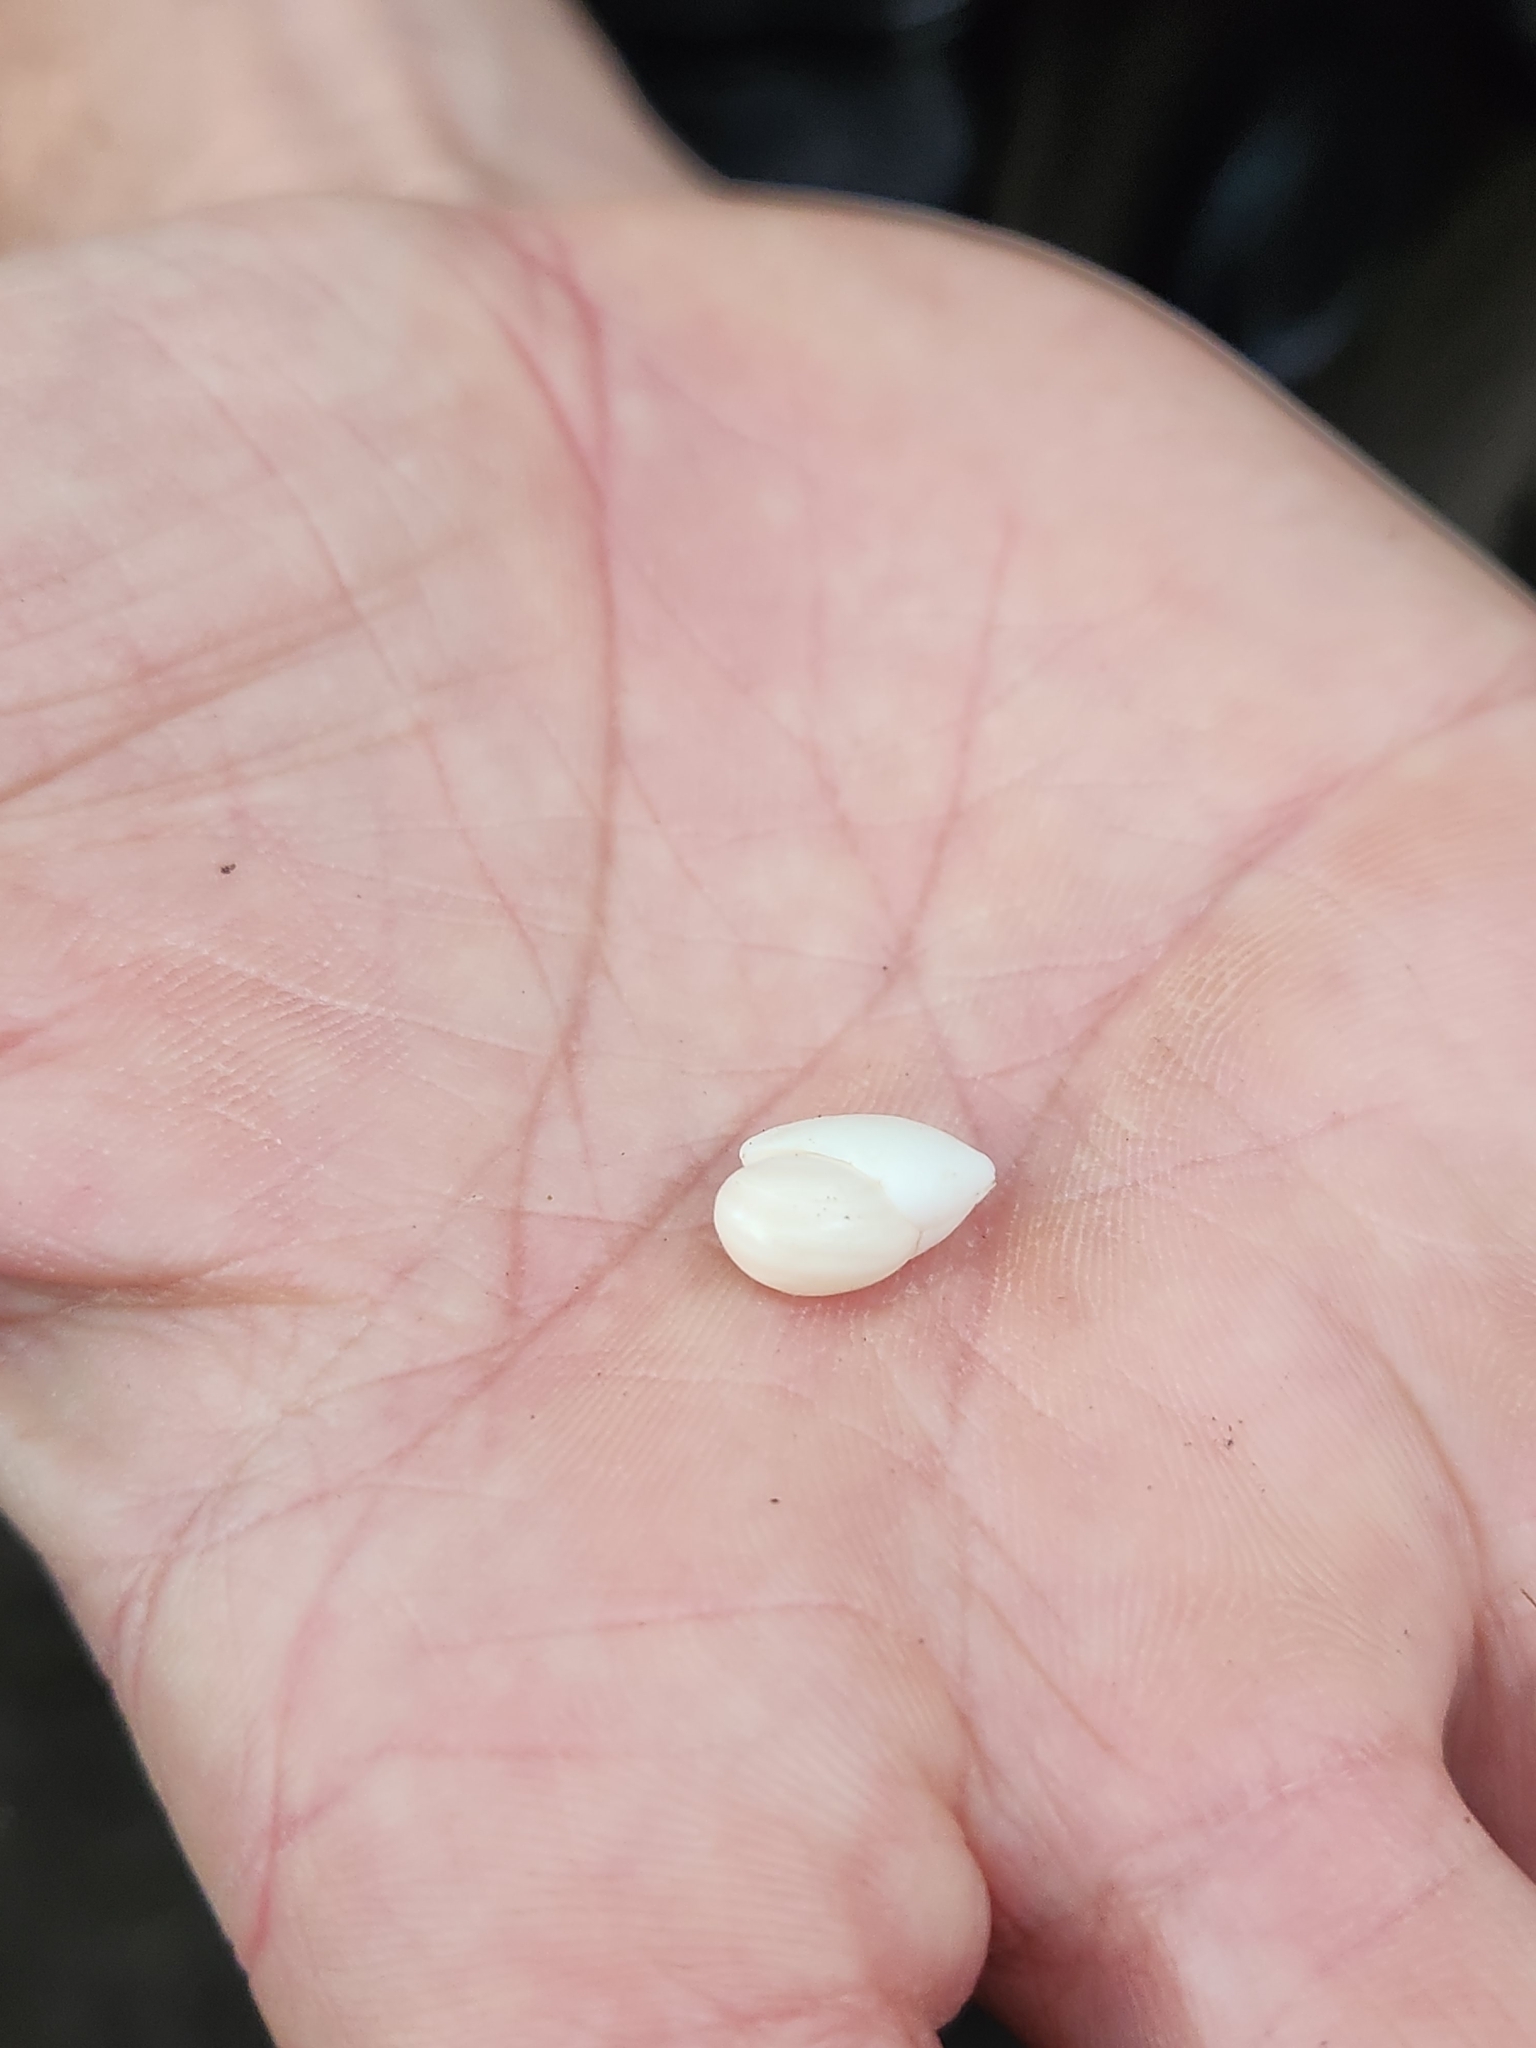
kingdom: Plantae
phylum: Tracheophyta
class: Magnoliopsida
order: Malvales
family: Malvaceae
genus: Hampea
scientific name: Hampea appendiculata
